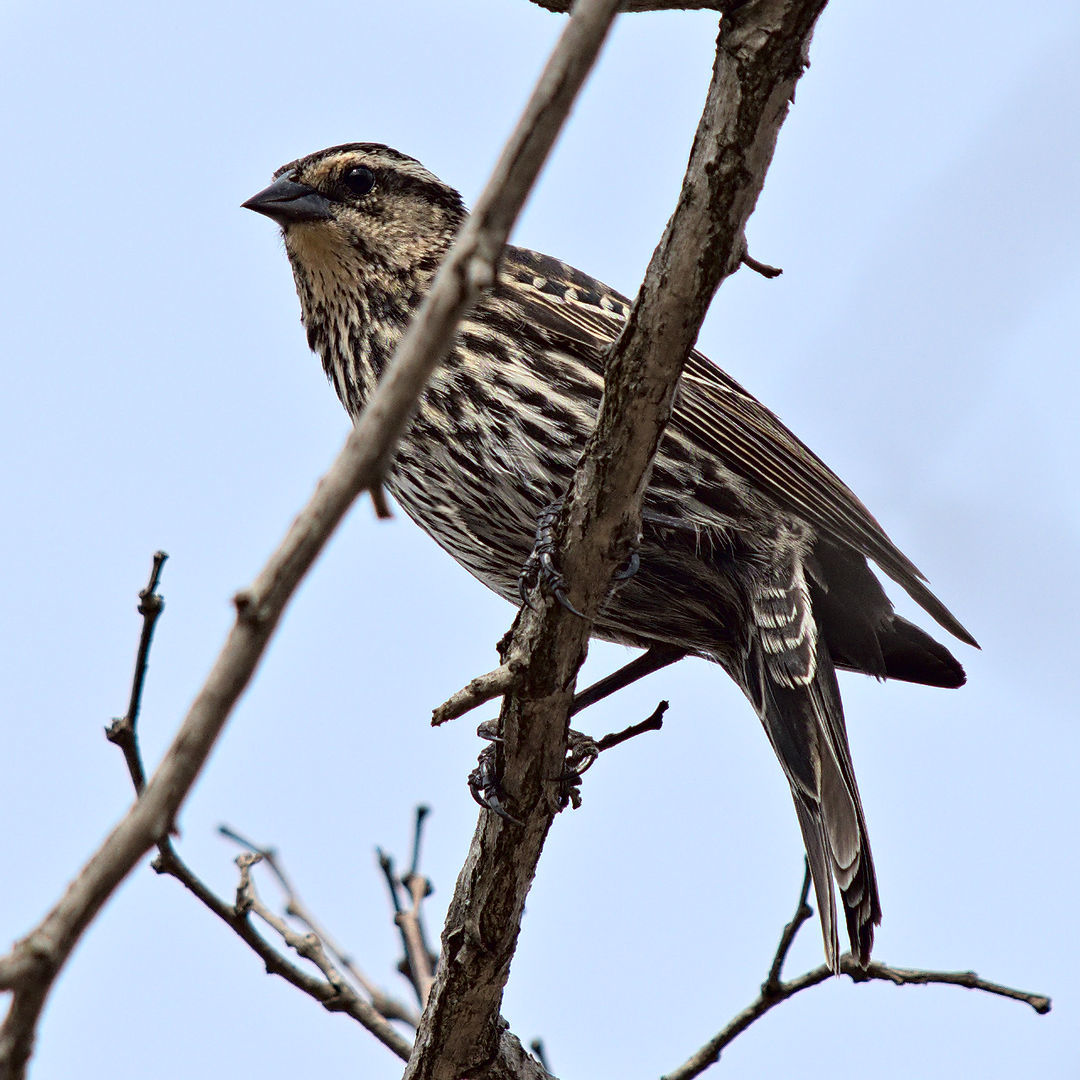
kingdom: Animalia
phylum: Chordata
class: Aves
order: Passeriformes
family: Icteridae
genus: Agelaius
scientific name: Agelaius phoeniceus
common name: Red-winged blackbird
